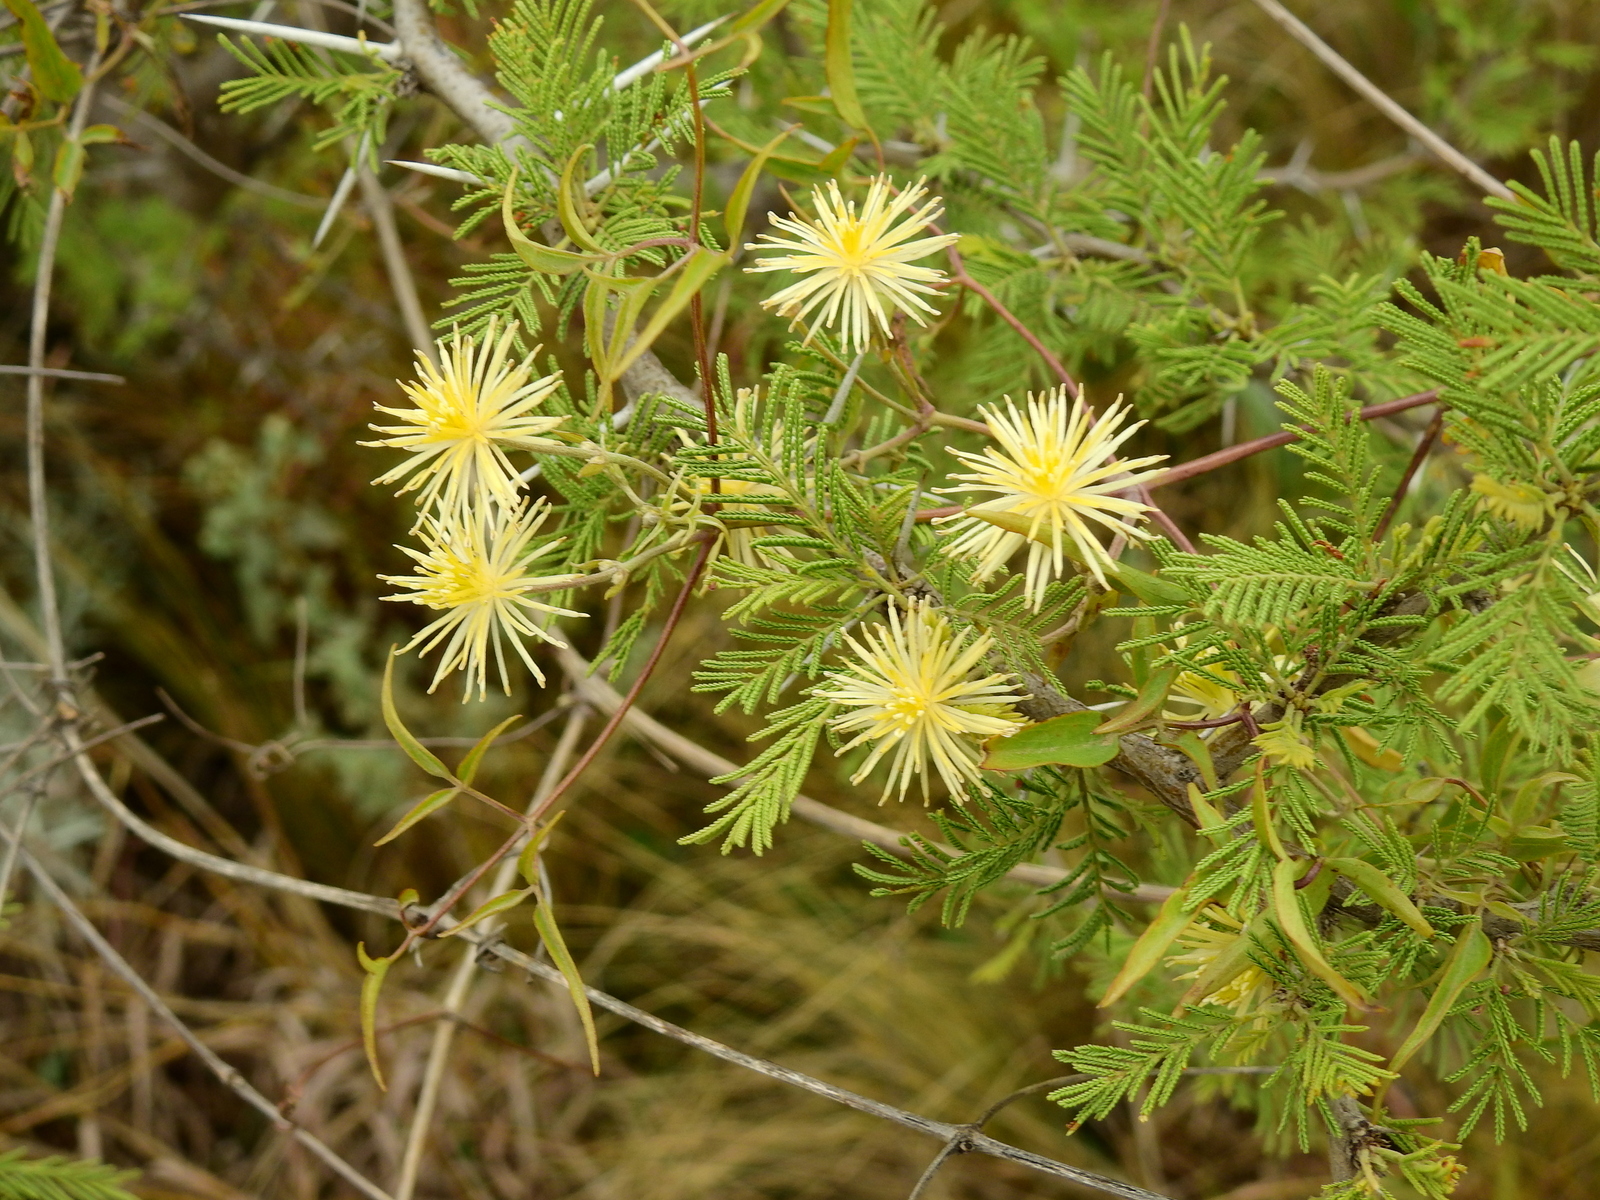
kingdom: Plantae
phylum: Tracheophyta
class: Magnoliopsida
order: Ranunculales
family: Ranunculaceae
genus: Clematis
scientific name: Clematis montevidensis
